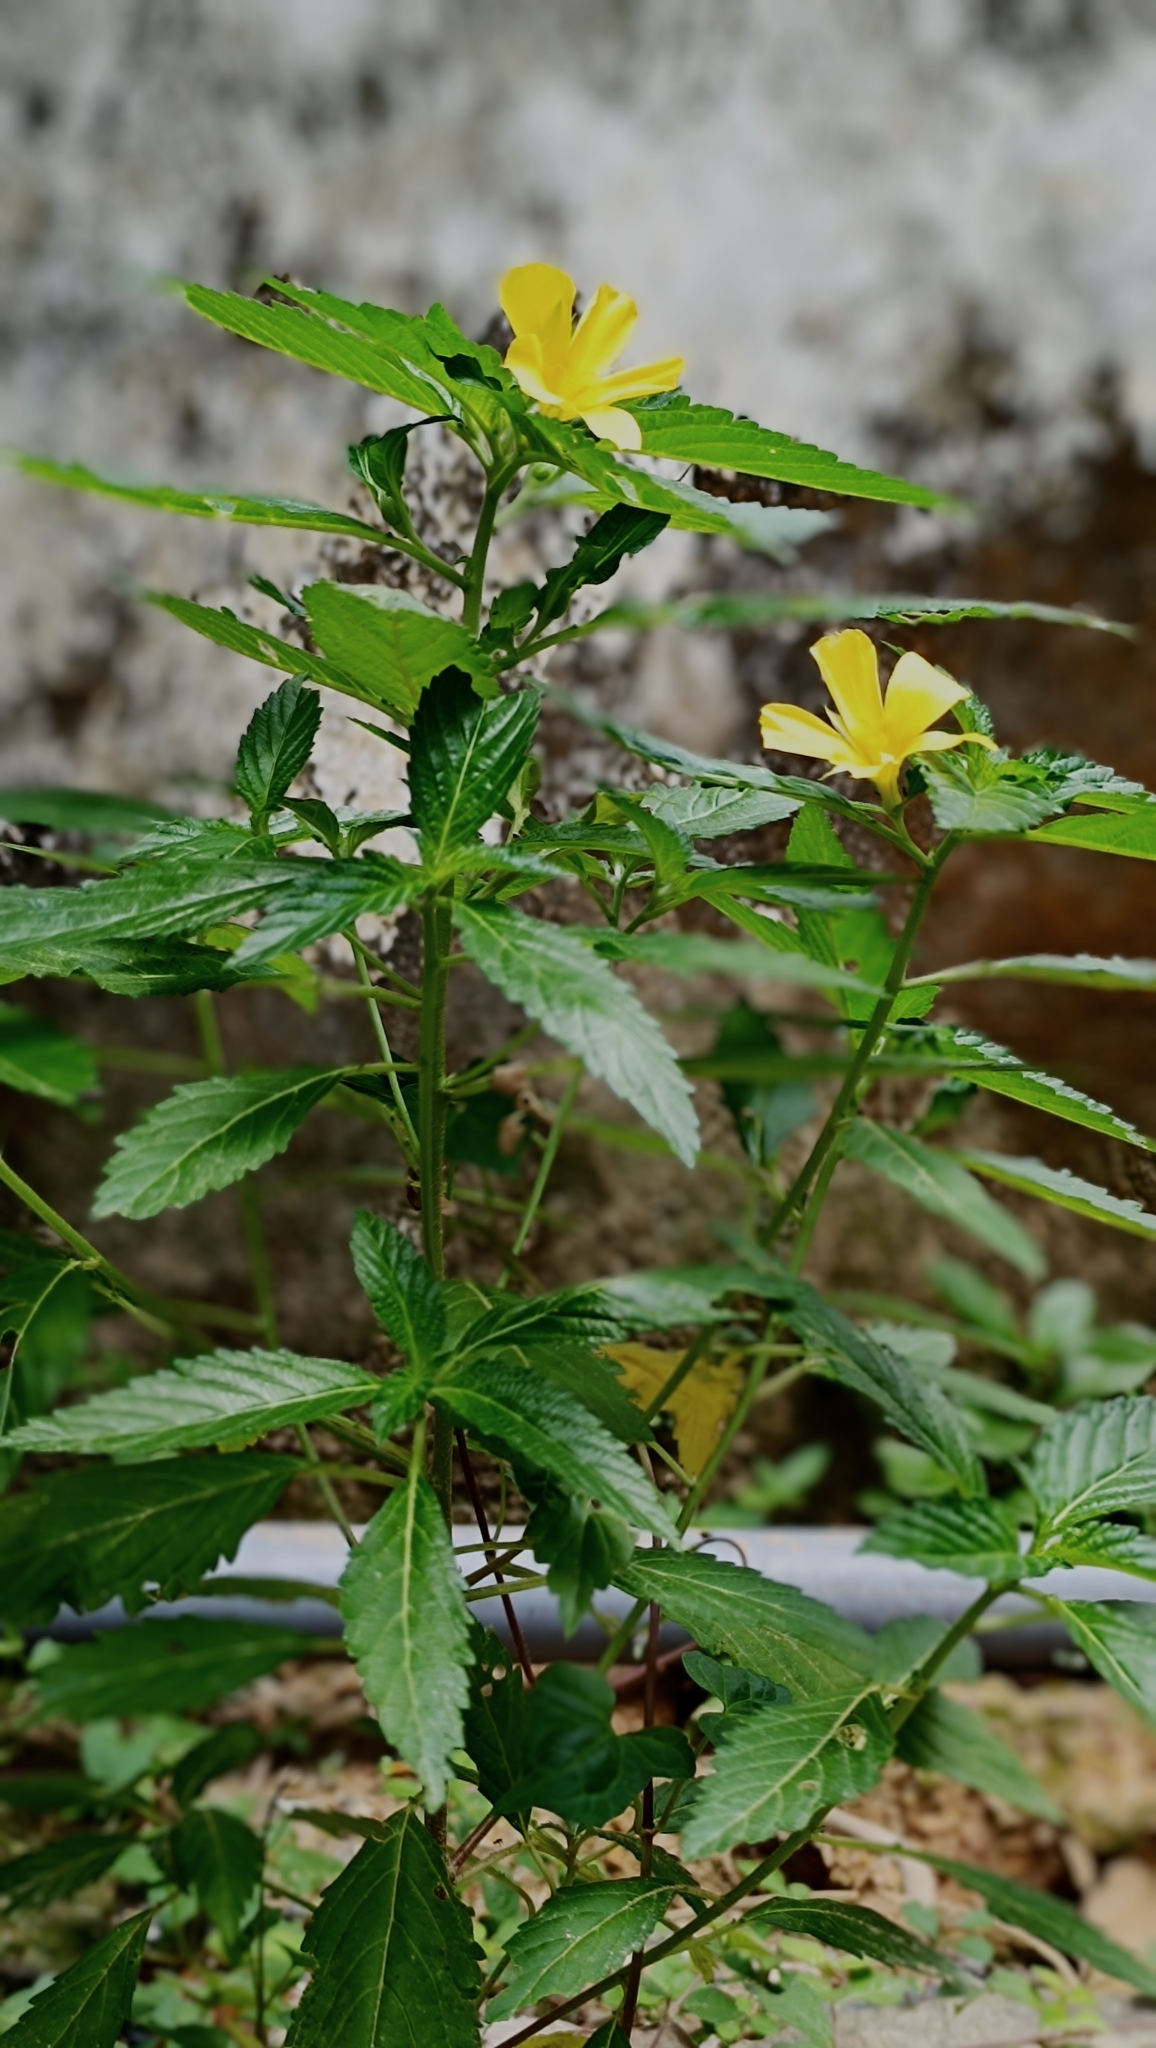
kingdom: Plantae
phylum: Tracheophyta
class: Magnoliopsida
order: Malpighiales
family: Turneraceae
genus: Turnera
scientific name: Turnera ulmifolia
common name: Ramgoat dashalong
